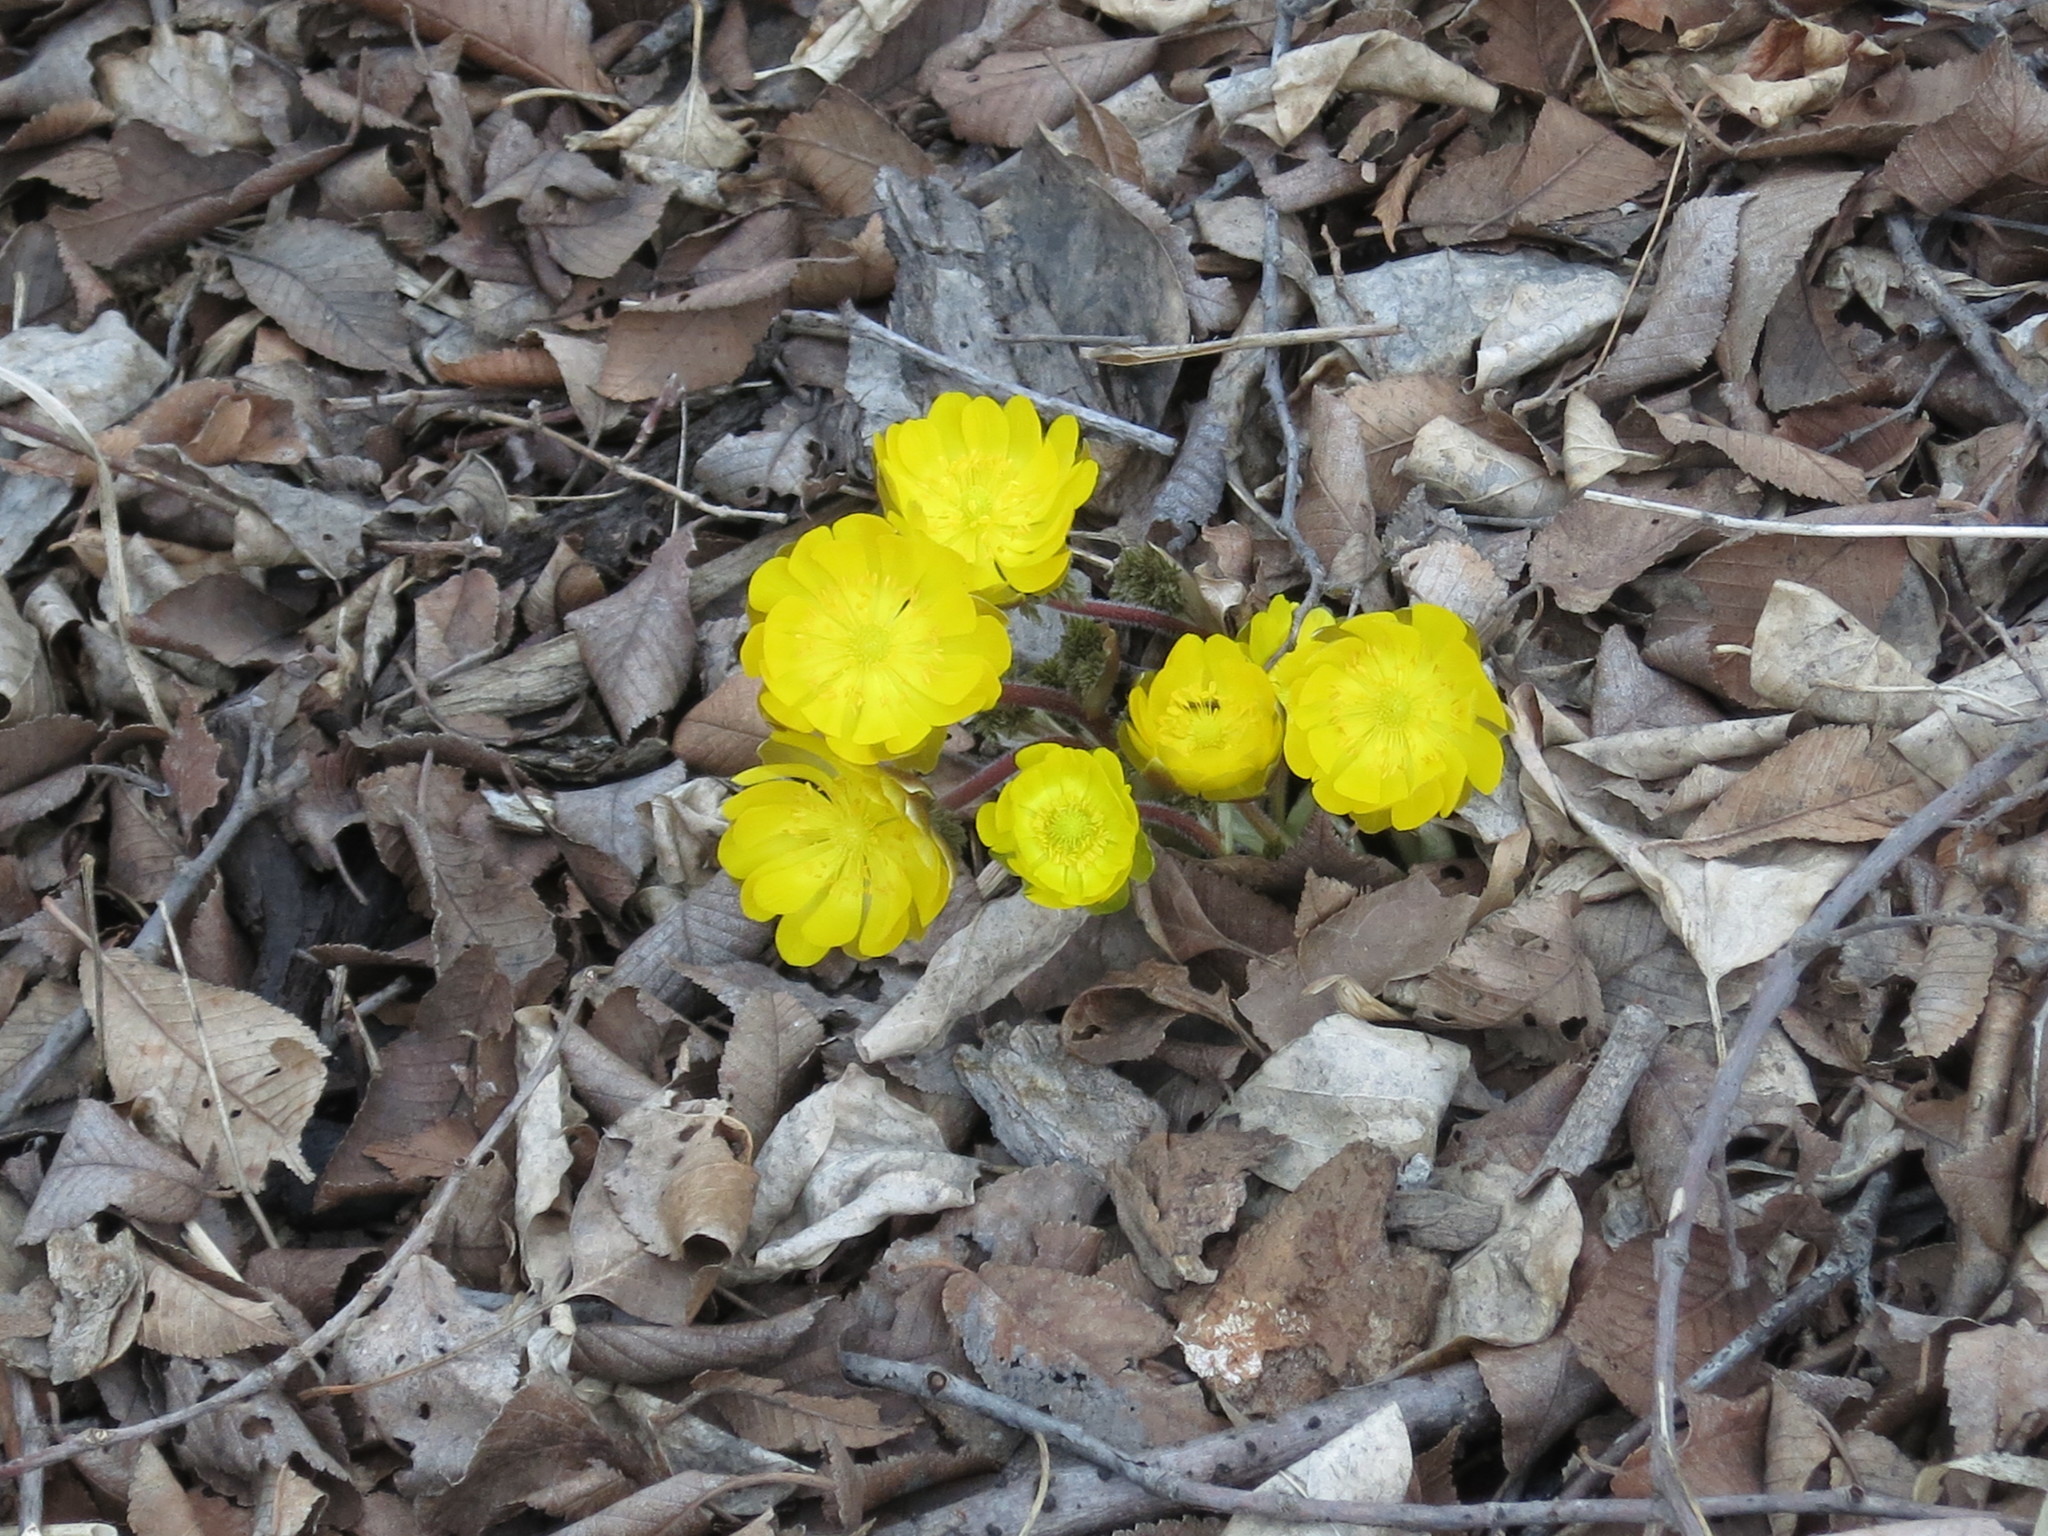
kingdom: Plantae
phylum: Tracheophyta
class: Magnoliopsida
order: Ranunculales
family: Ranunculaceae
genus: Adonis
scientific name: Adonis amurensis
